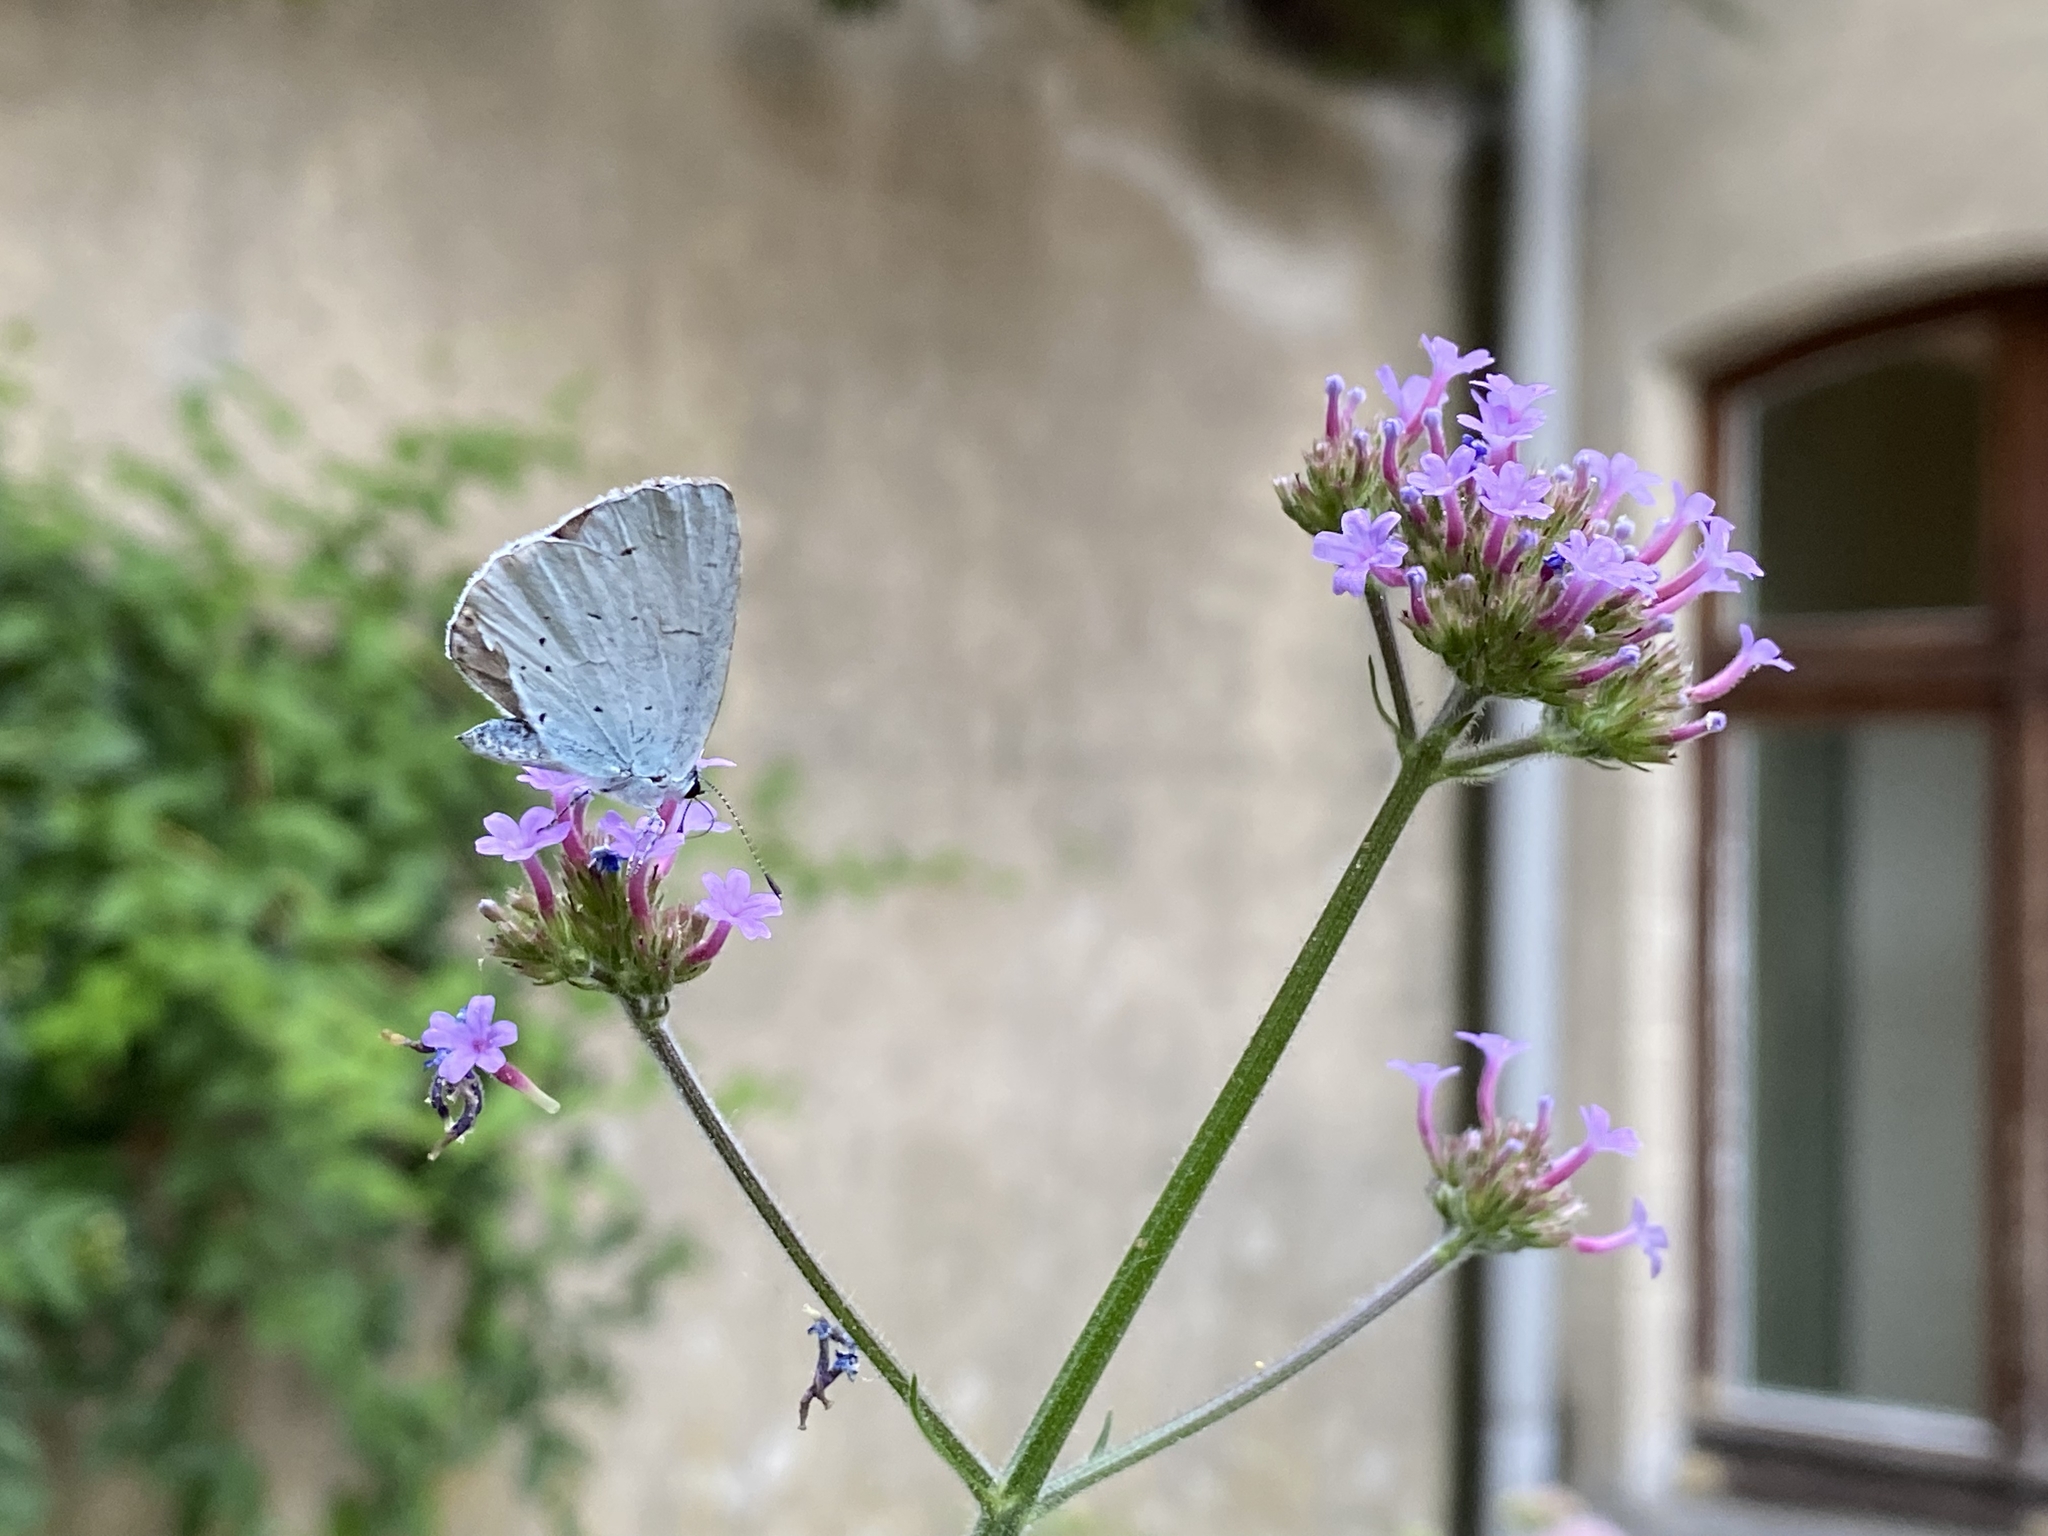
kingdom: Animalia
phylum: Arthropoda
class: Insecta
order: Lepidoptera
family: Lycaenidae
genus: Celastrina
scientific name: Celastrina argiolus
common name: Holly blue
